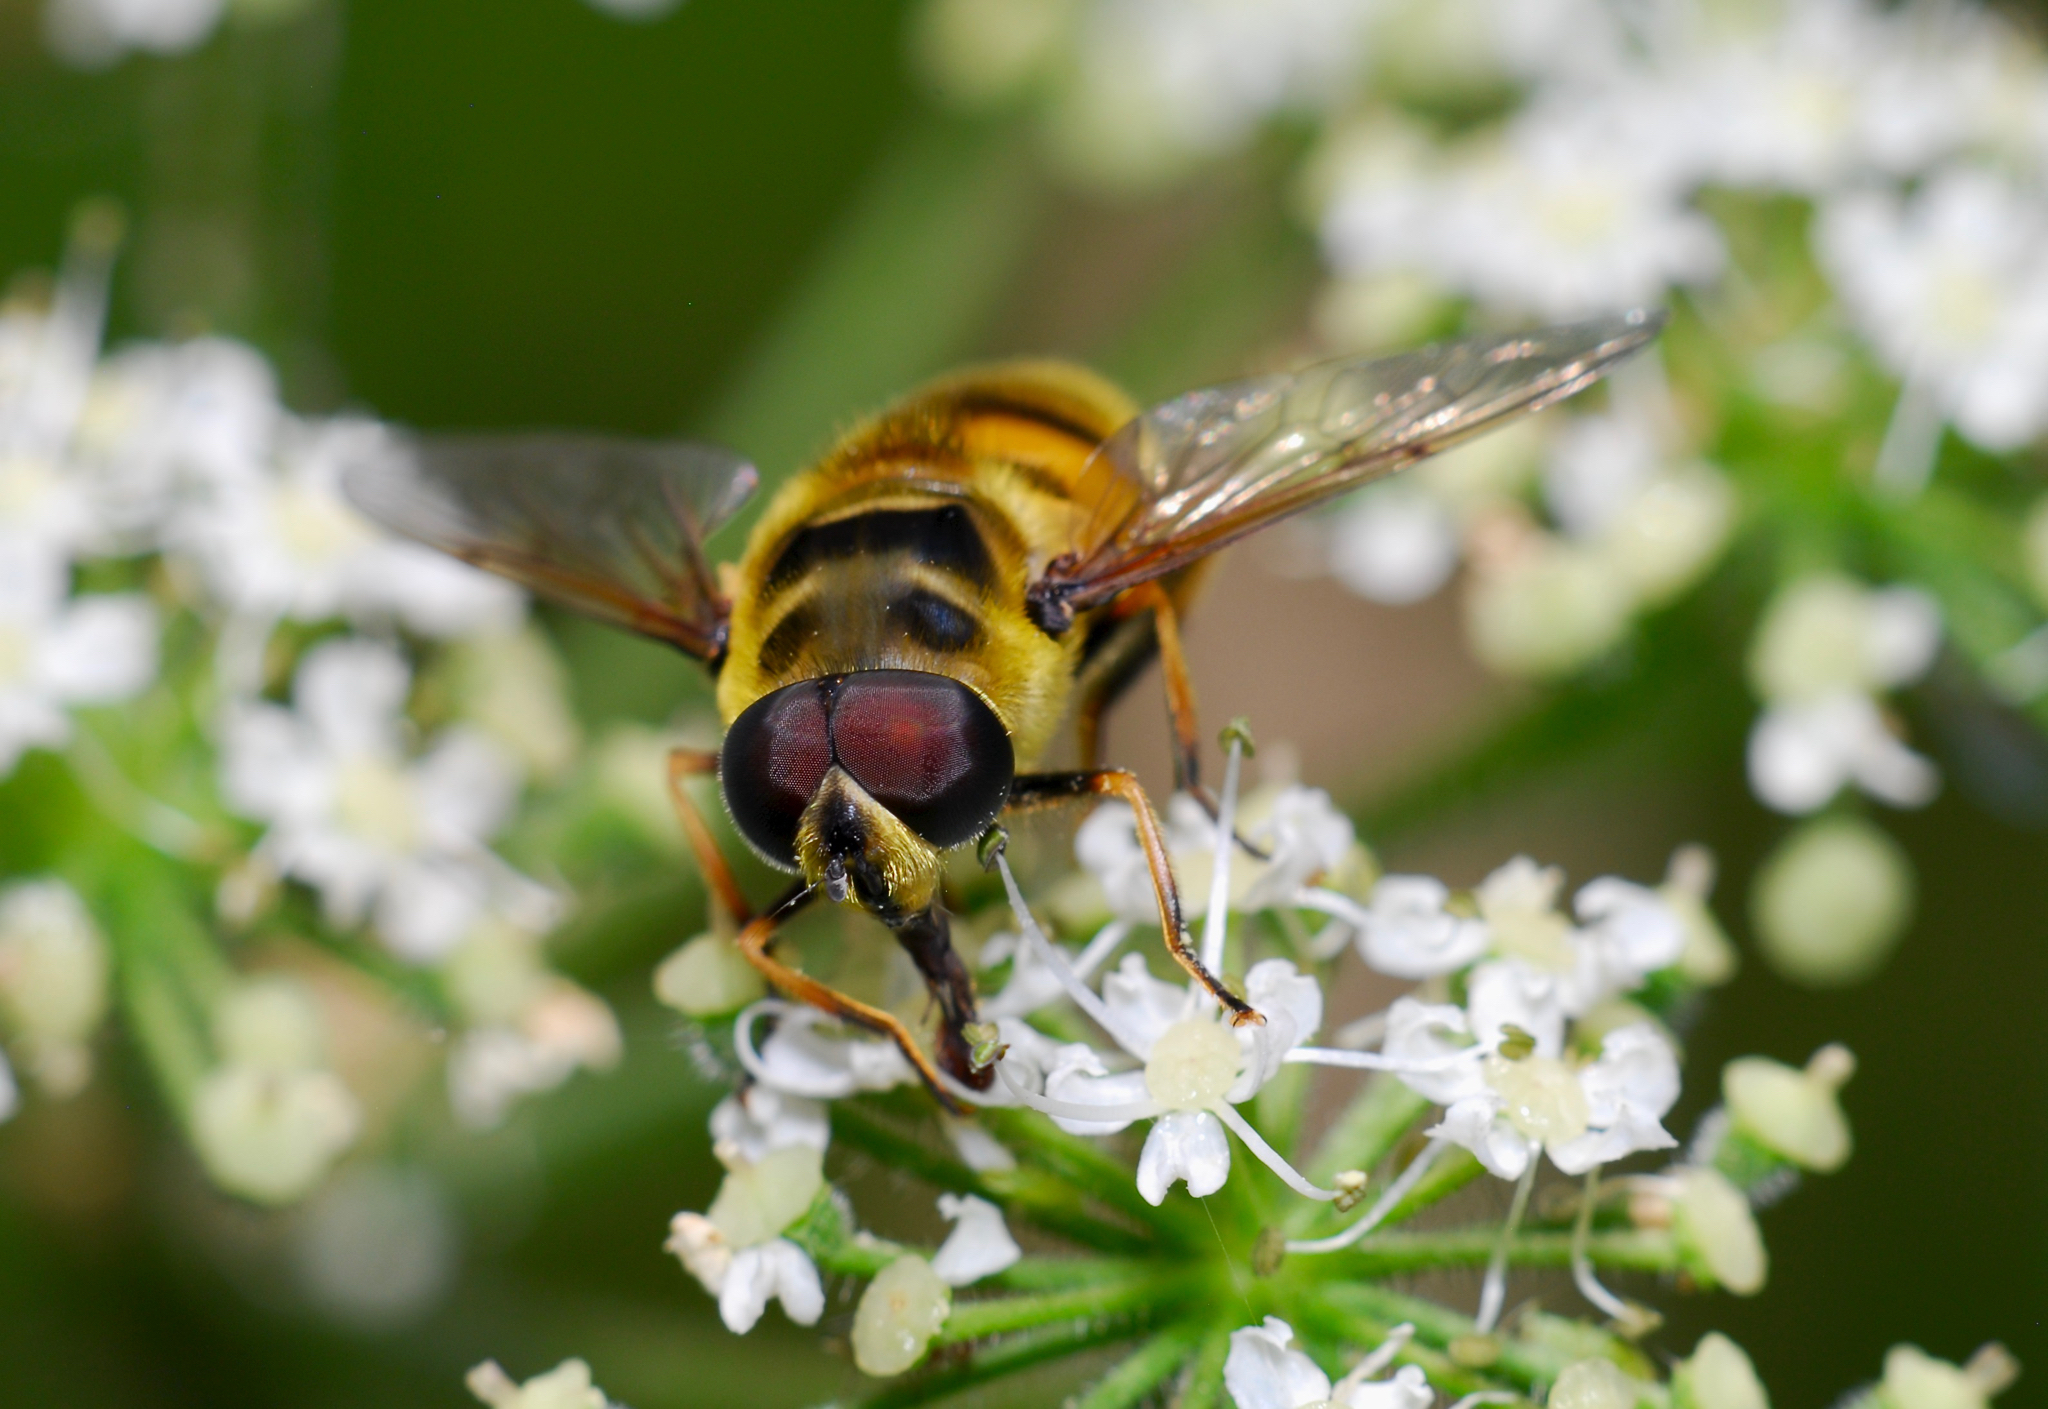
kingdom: Animalia
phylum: Arthropoda
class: Insecta
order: Diptera
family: Syrphidae
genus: Myathropa
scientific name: Myathropa florea
